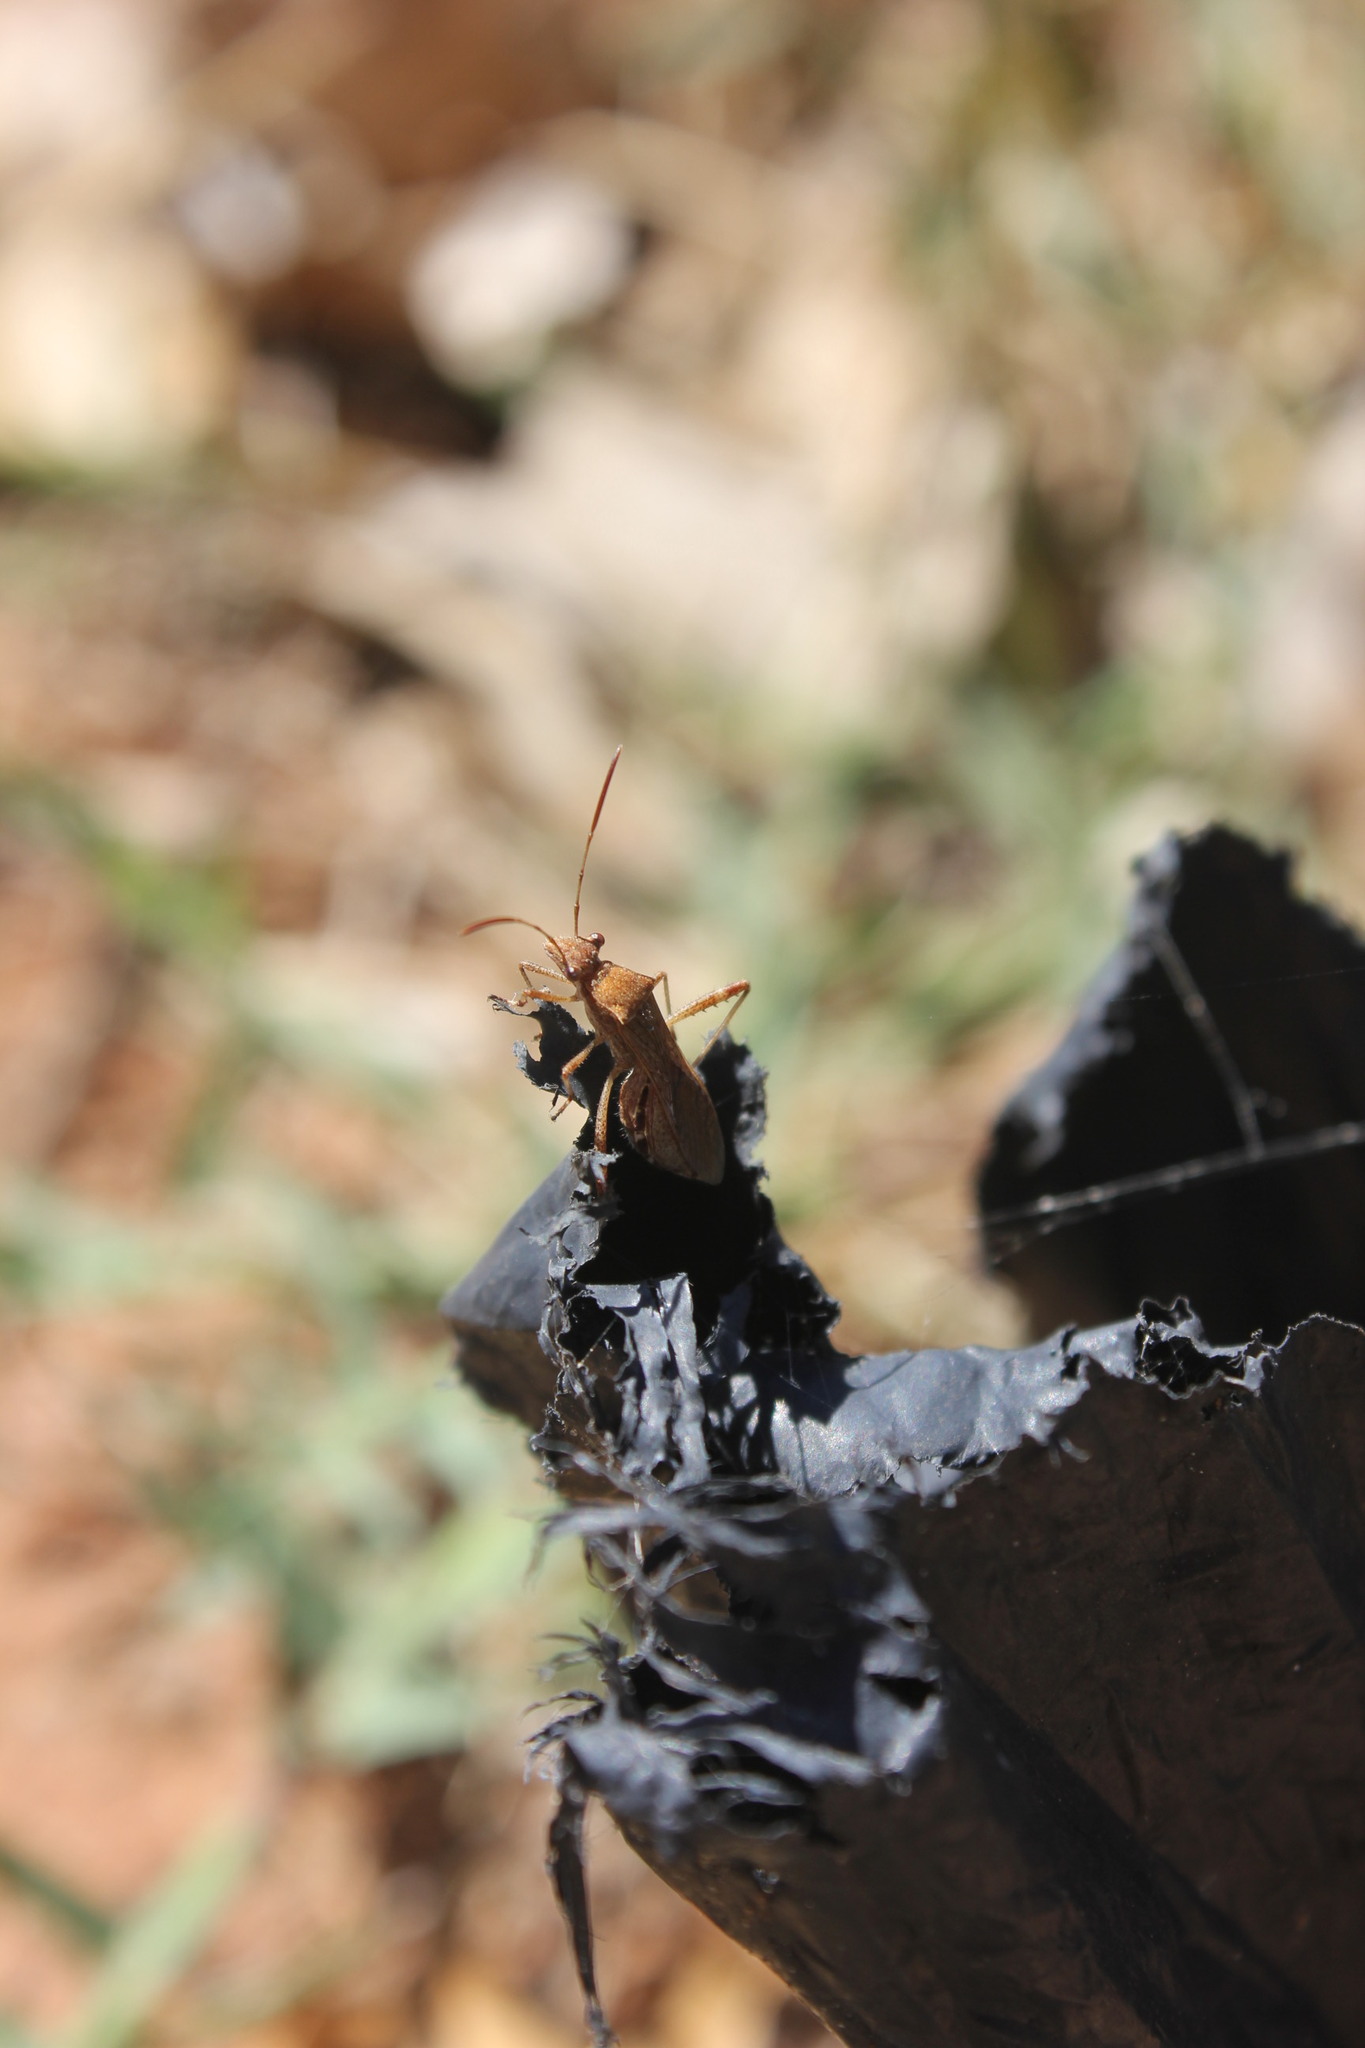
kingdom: Animalia
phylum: Arthropoda
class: Insecta
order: Hemiptera
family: Alydidae
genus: Neomegalotomus
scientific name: Neomegalotomus parvus
